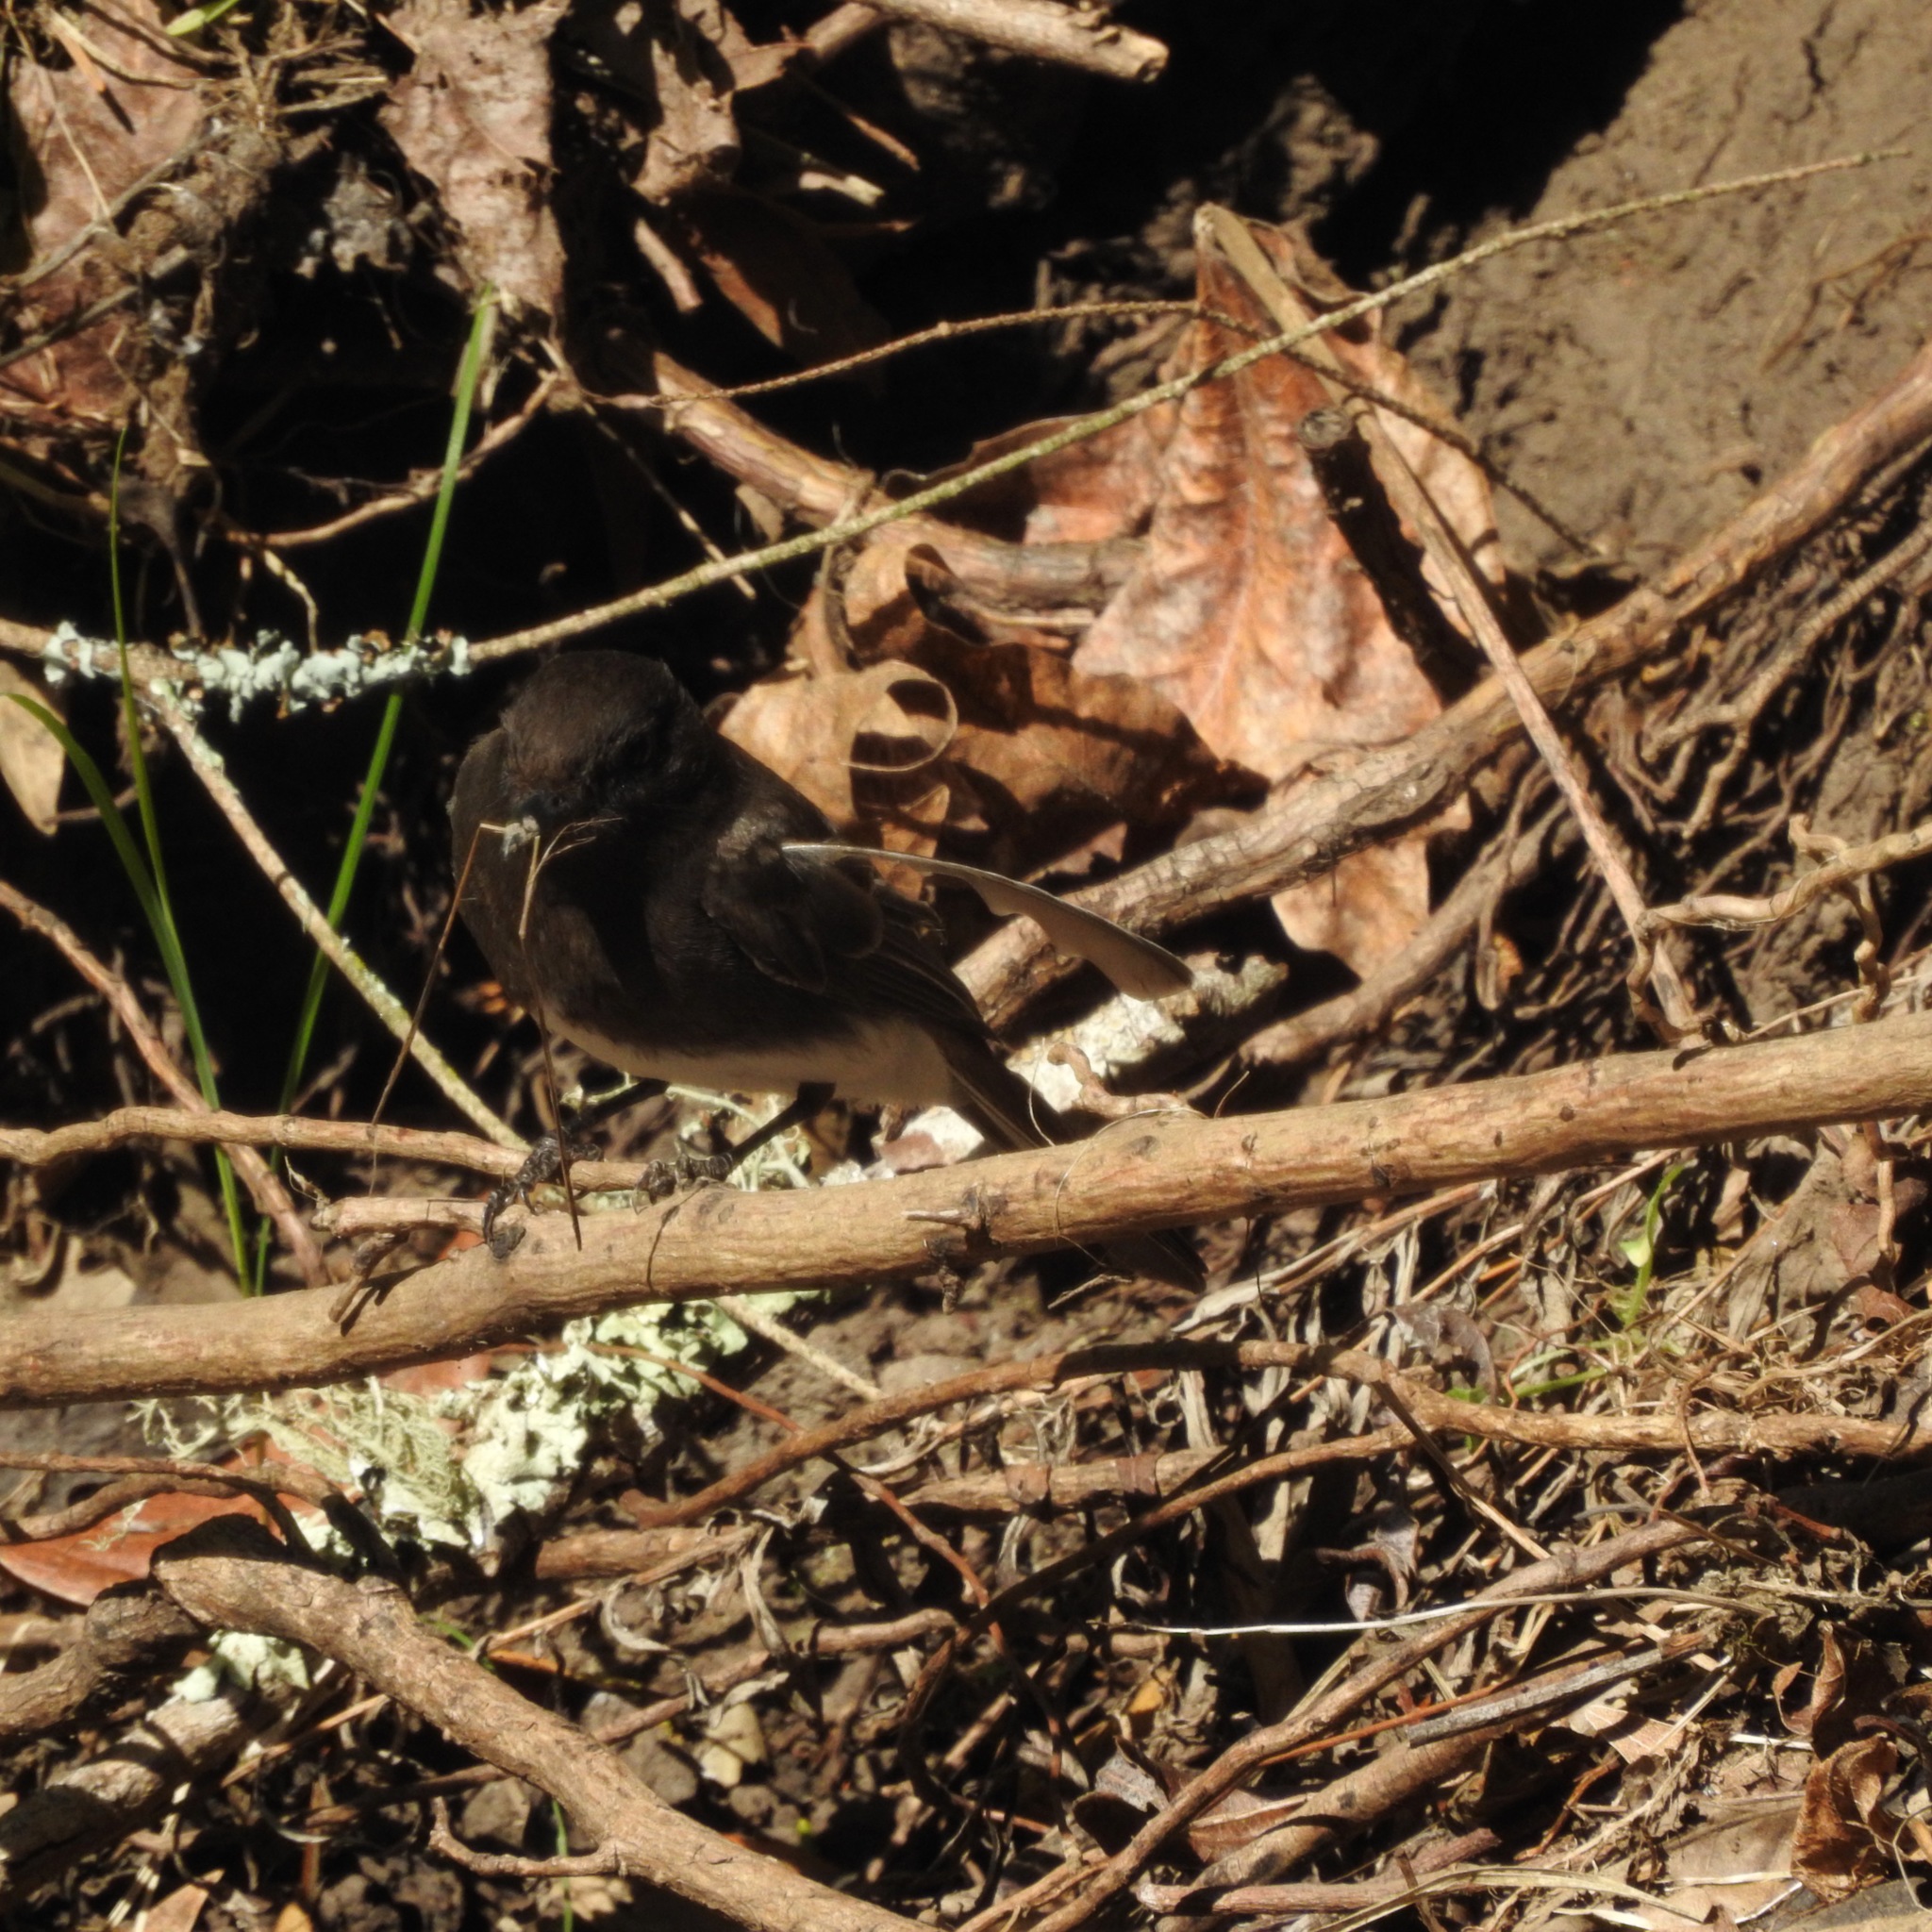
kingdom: Animalia
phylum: Chordata
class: Aves
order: Passeriformes
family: Tyrannidae
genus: Sayornis
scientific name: Sayornis nigricans
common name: Black phoebe
